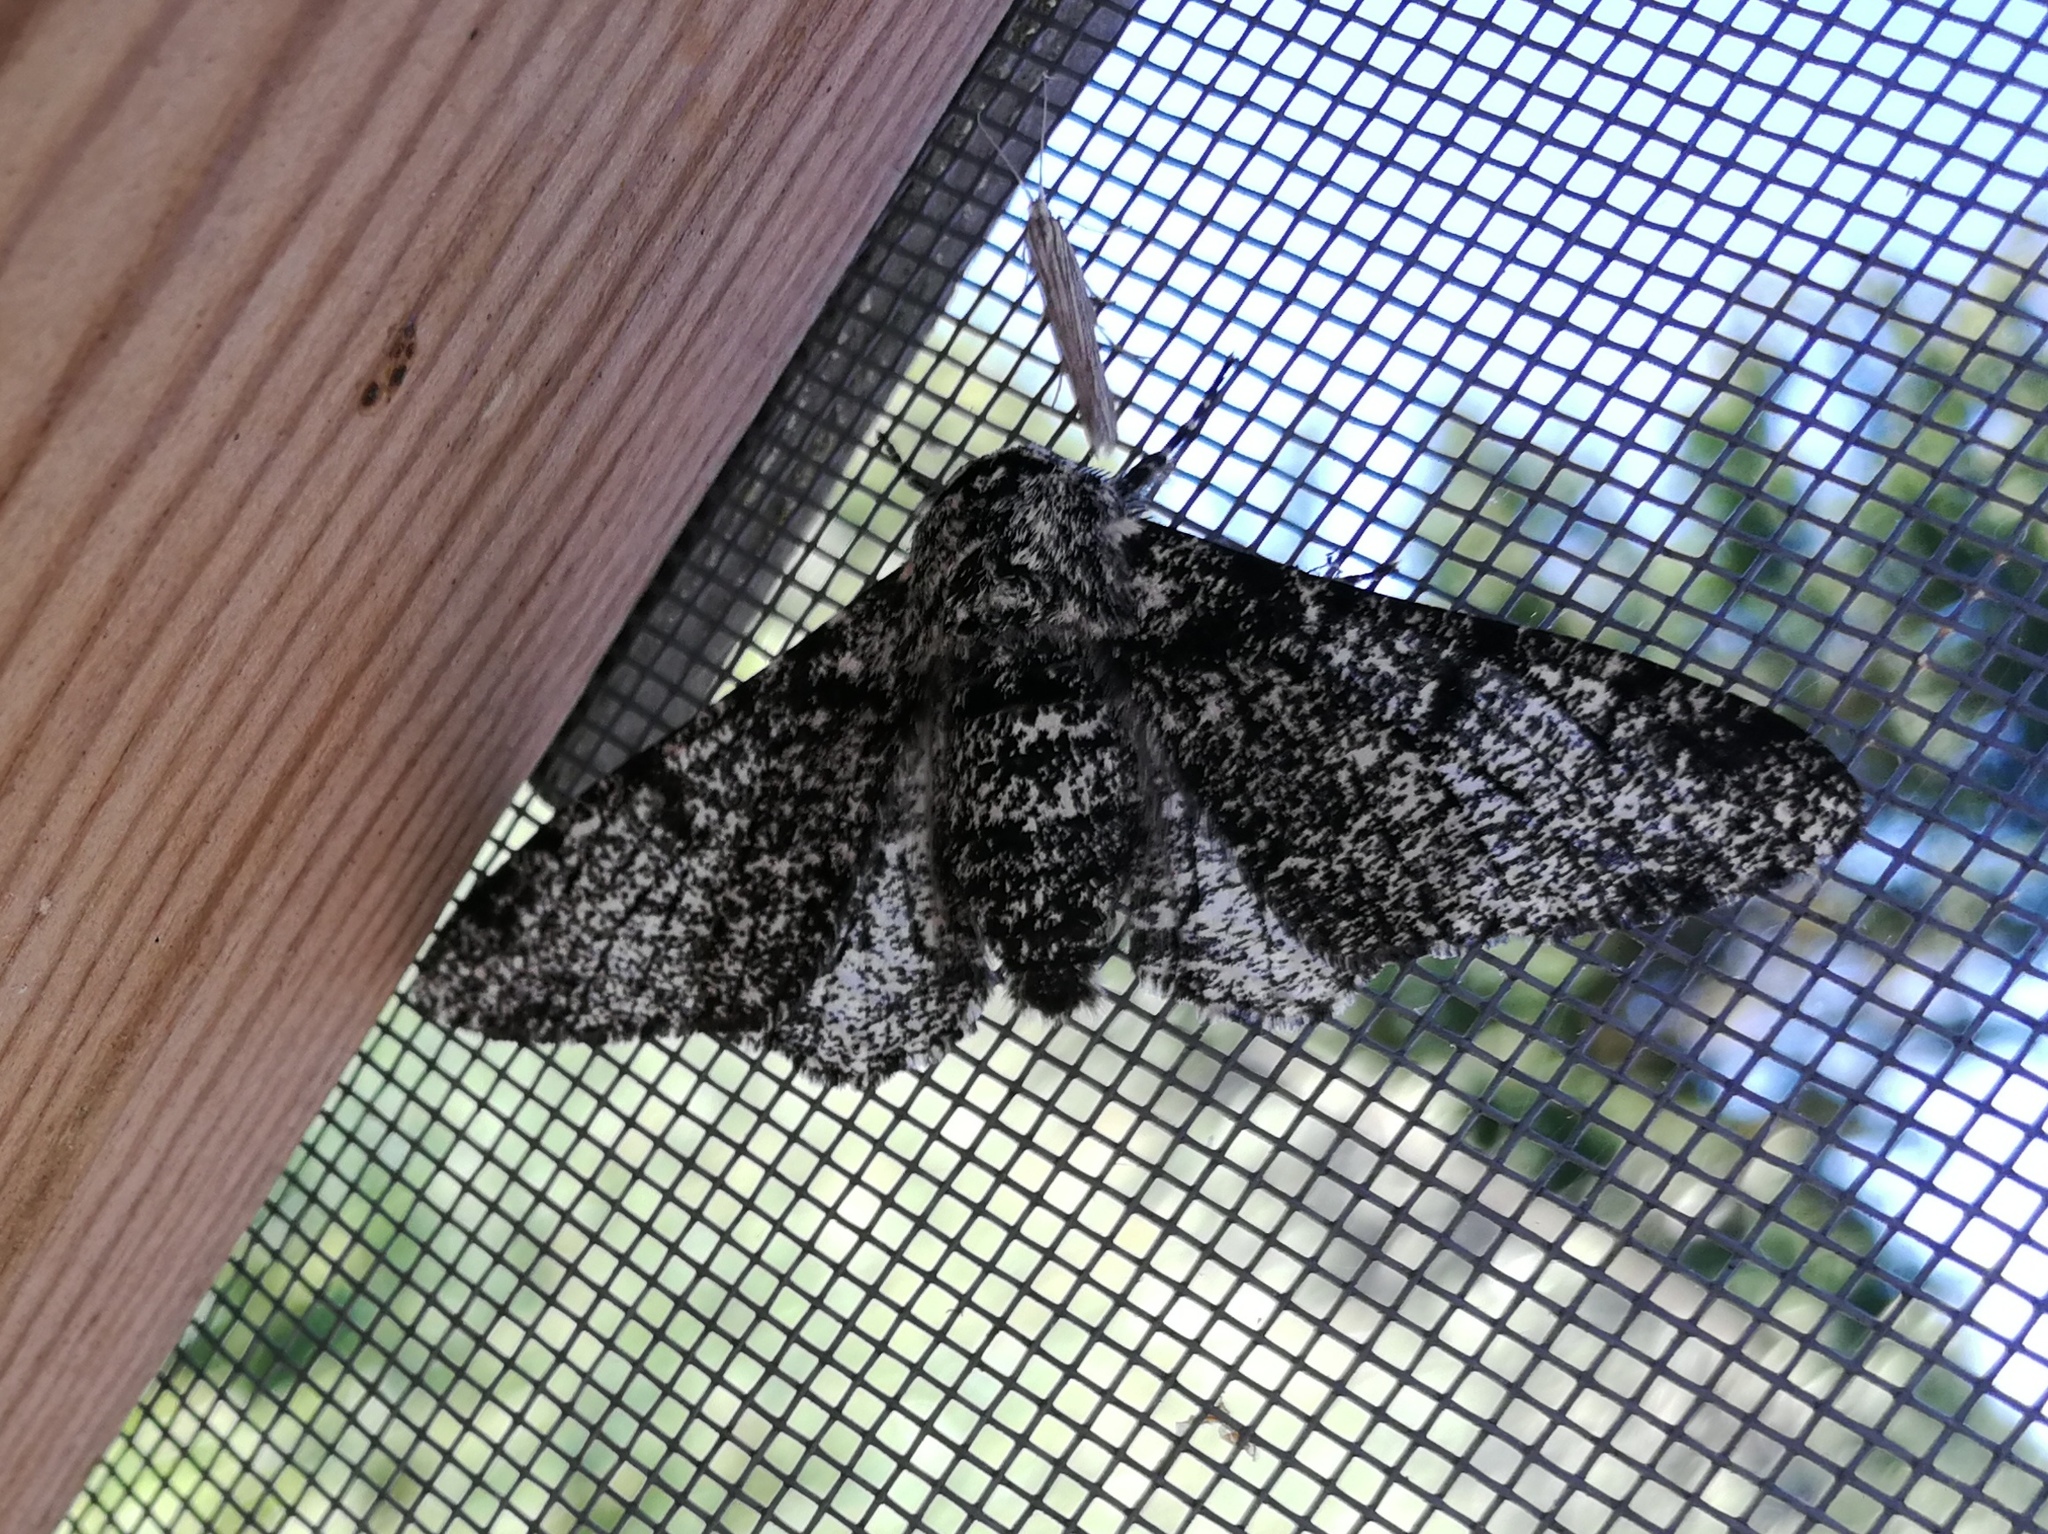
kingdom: Animalia
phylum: Arthropoda
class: Insecta
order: Lepidoptera
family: Geometridae
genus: Biston
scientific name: Biston betularia
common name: Peppered moth
